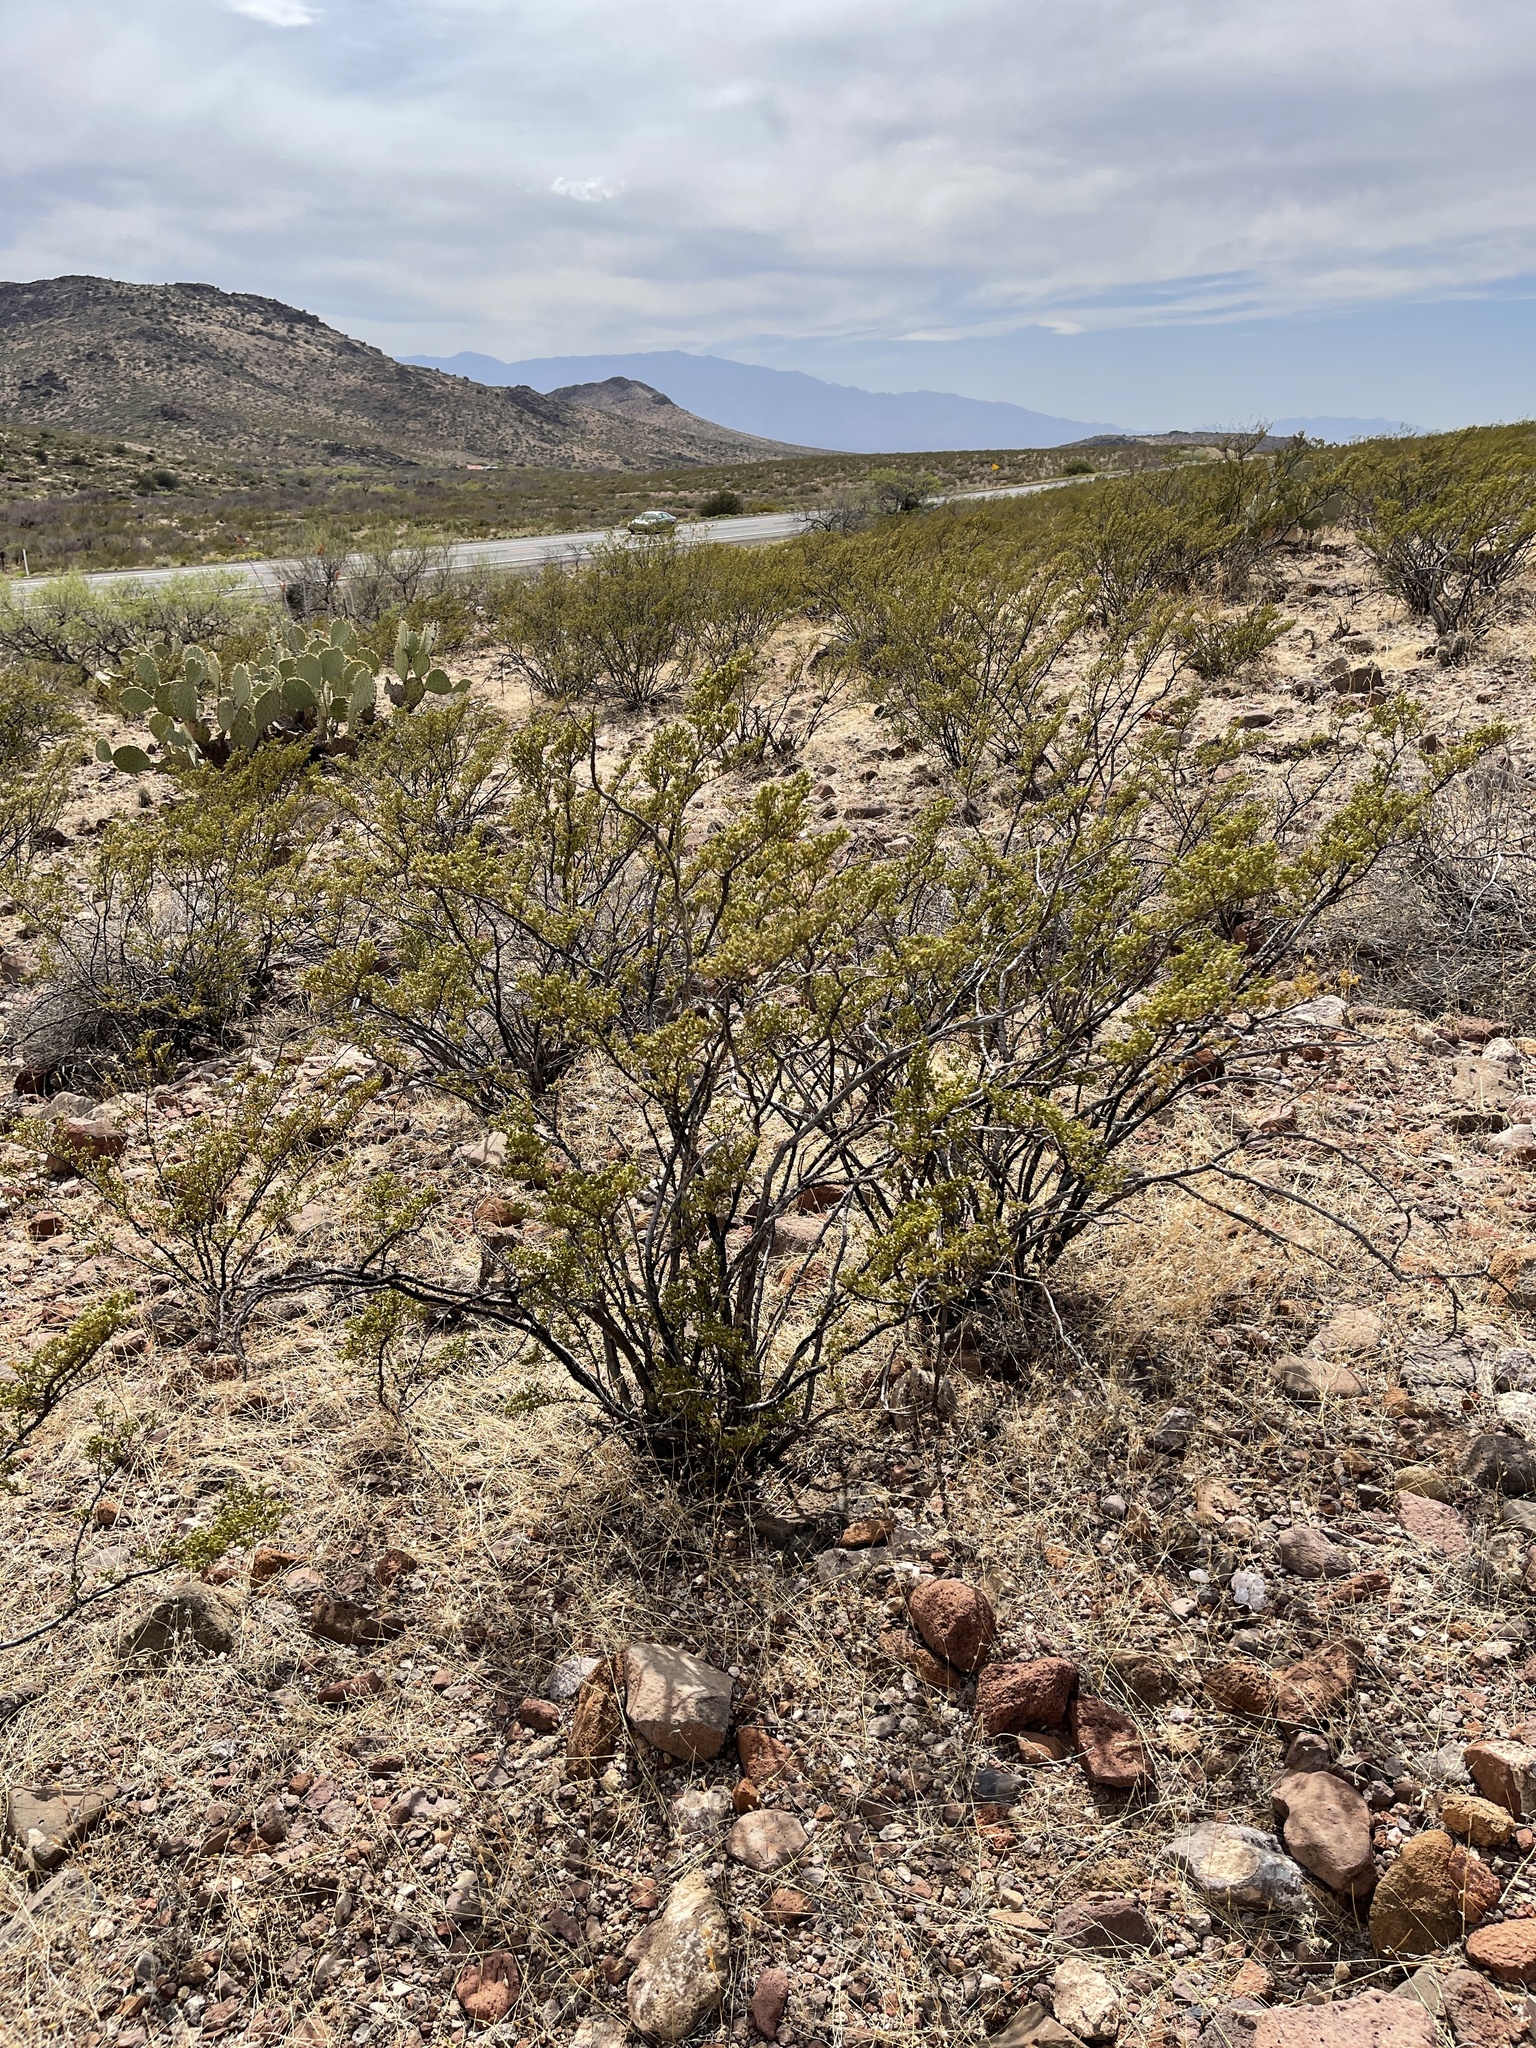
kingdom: Plantae
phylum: Tracheophyta
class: Magnoliopsida
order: Zygophyllales
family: Zygophyllaceae
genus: Larrea
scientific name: Larrea tridentata
